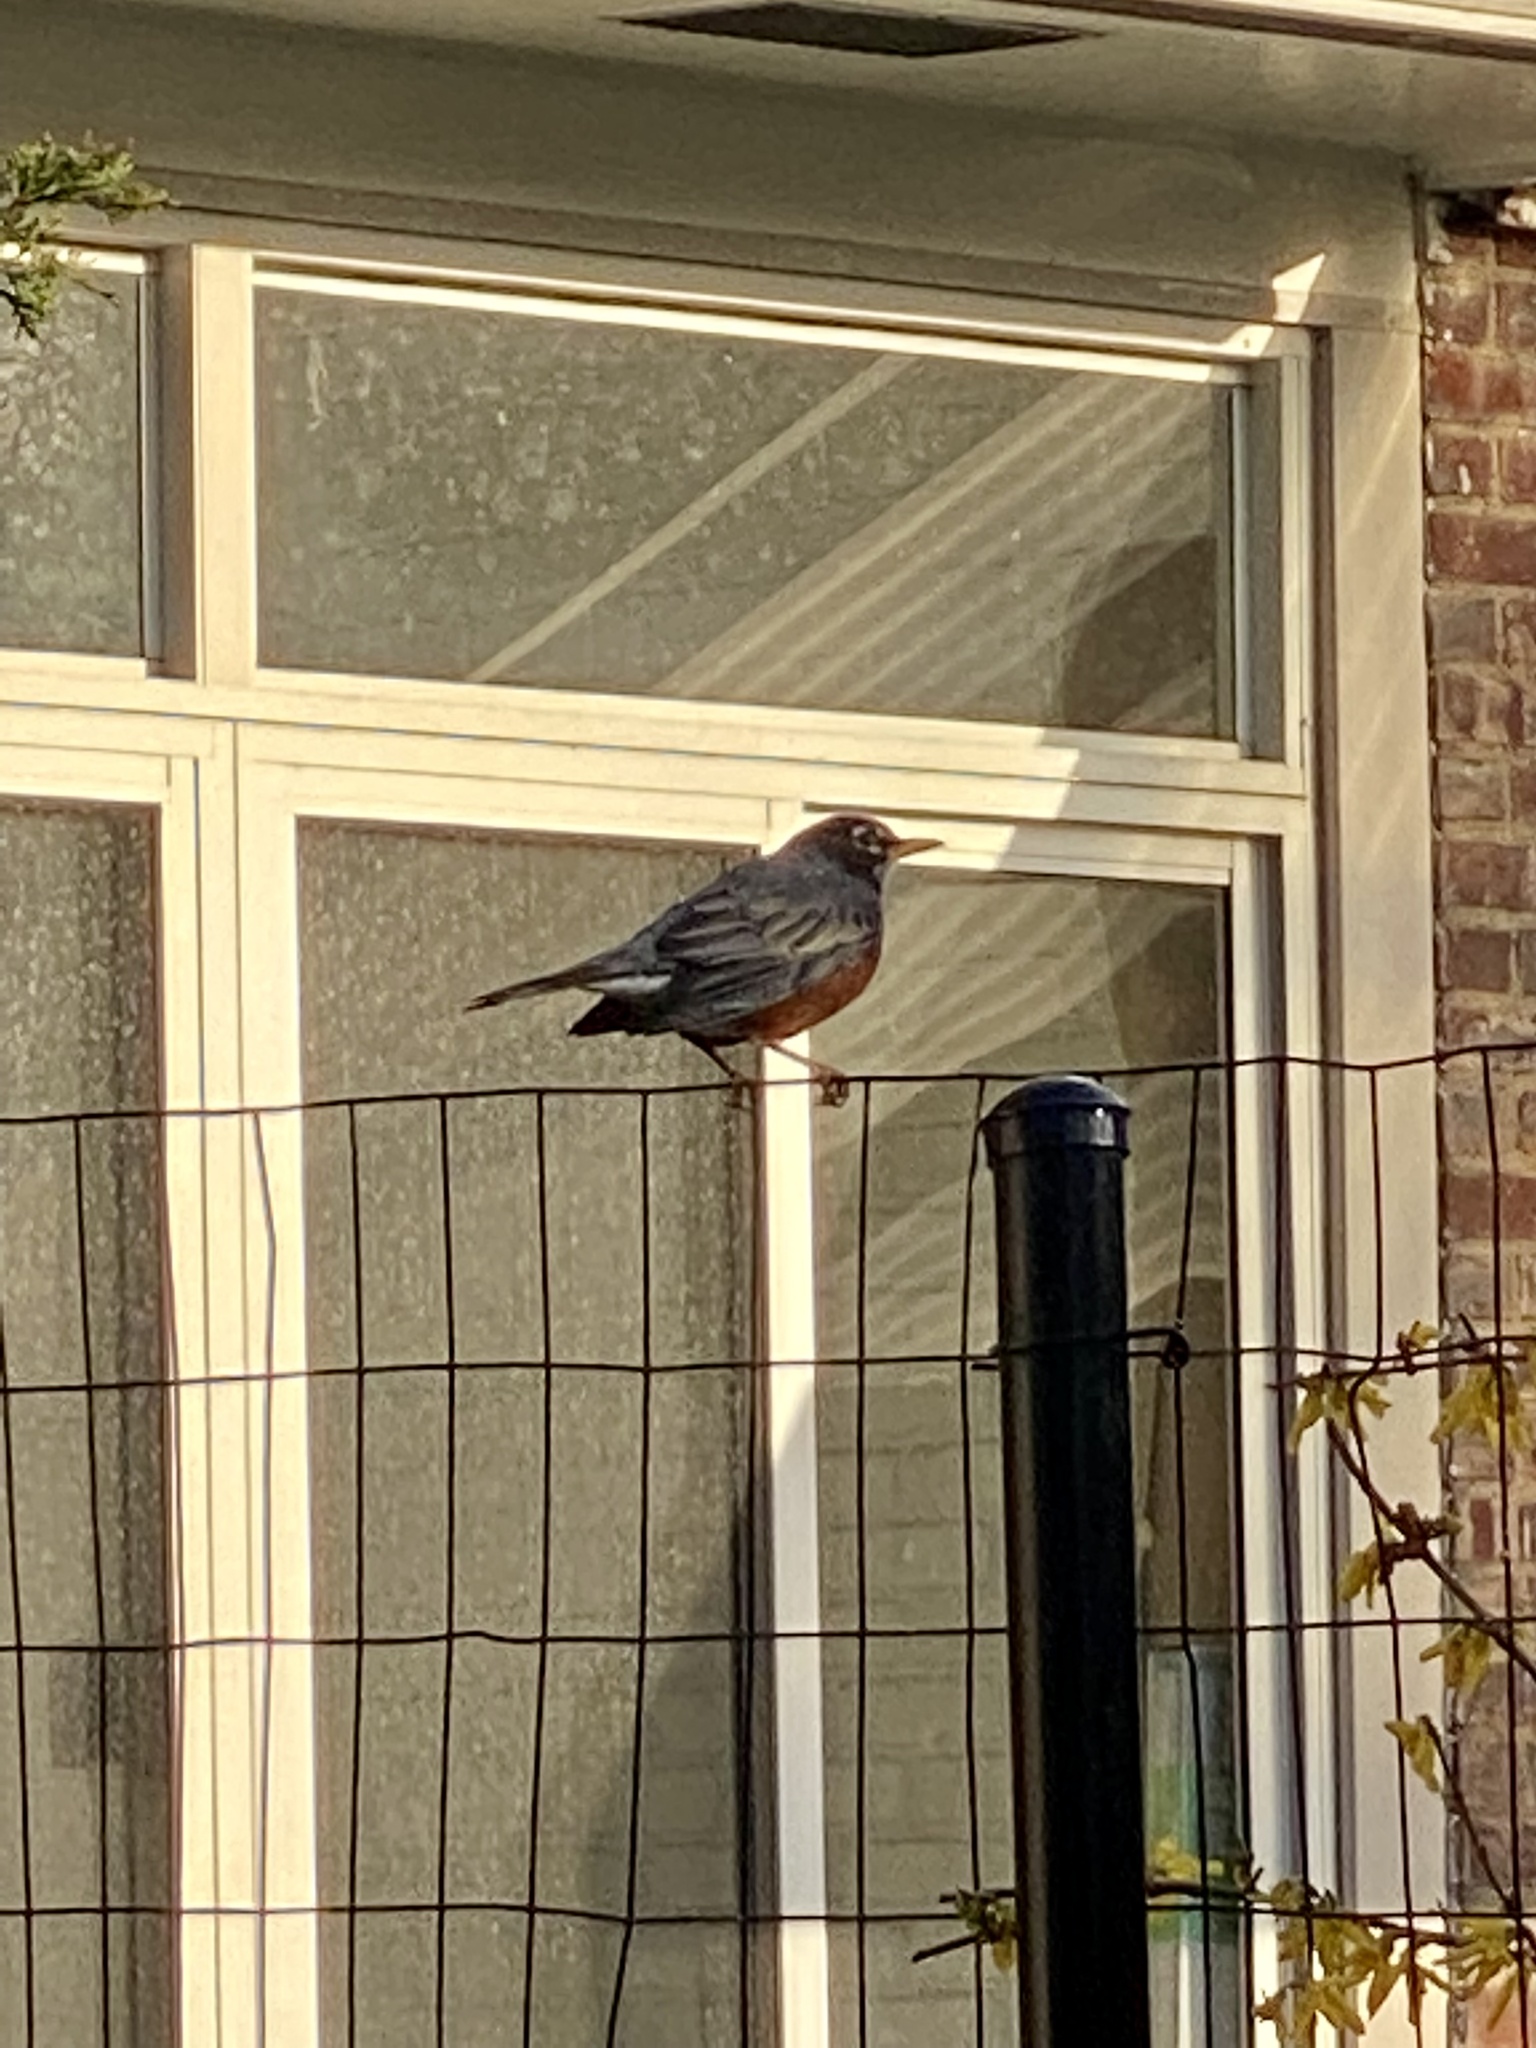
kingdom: Animalia
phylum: Chordata
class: Aves
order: Passeriformes
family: Turdidae
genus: Turdus
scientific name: Turdus migratorius
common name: American robin
